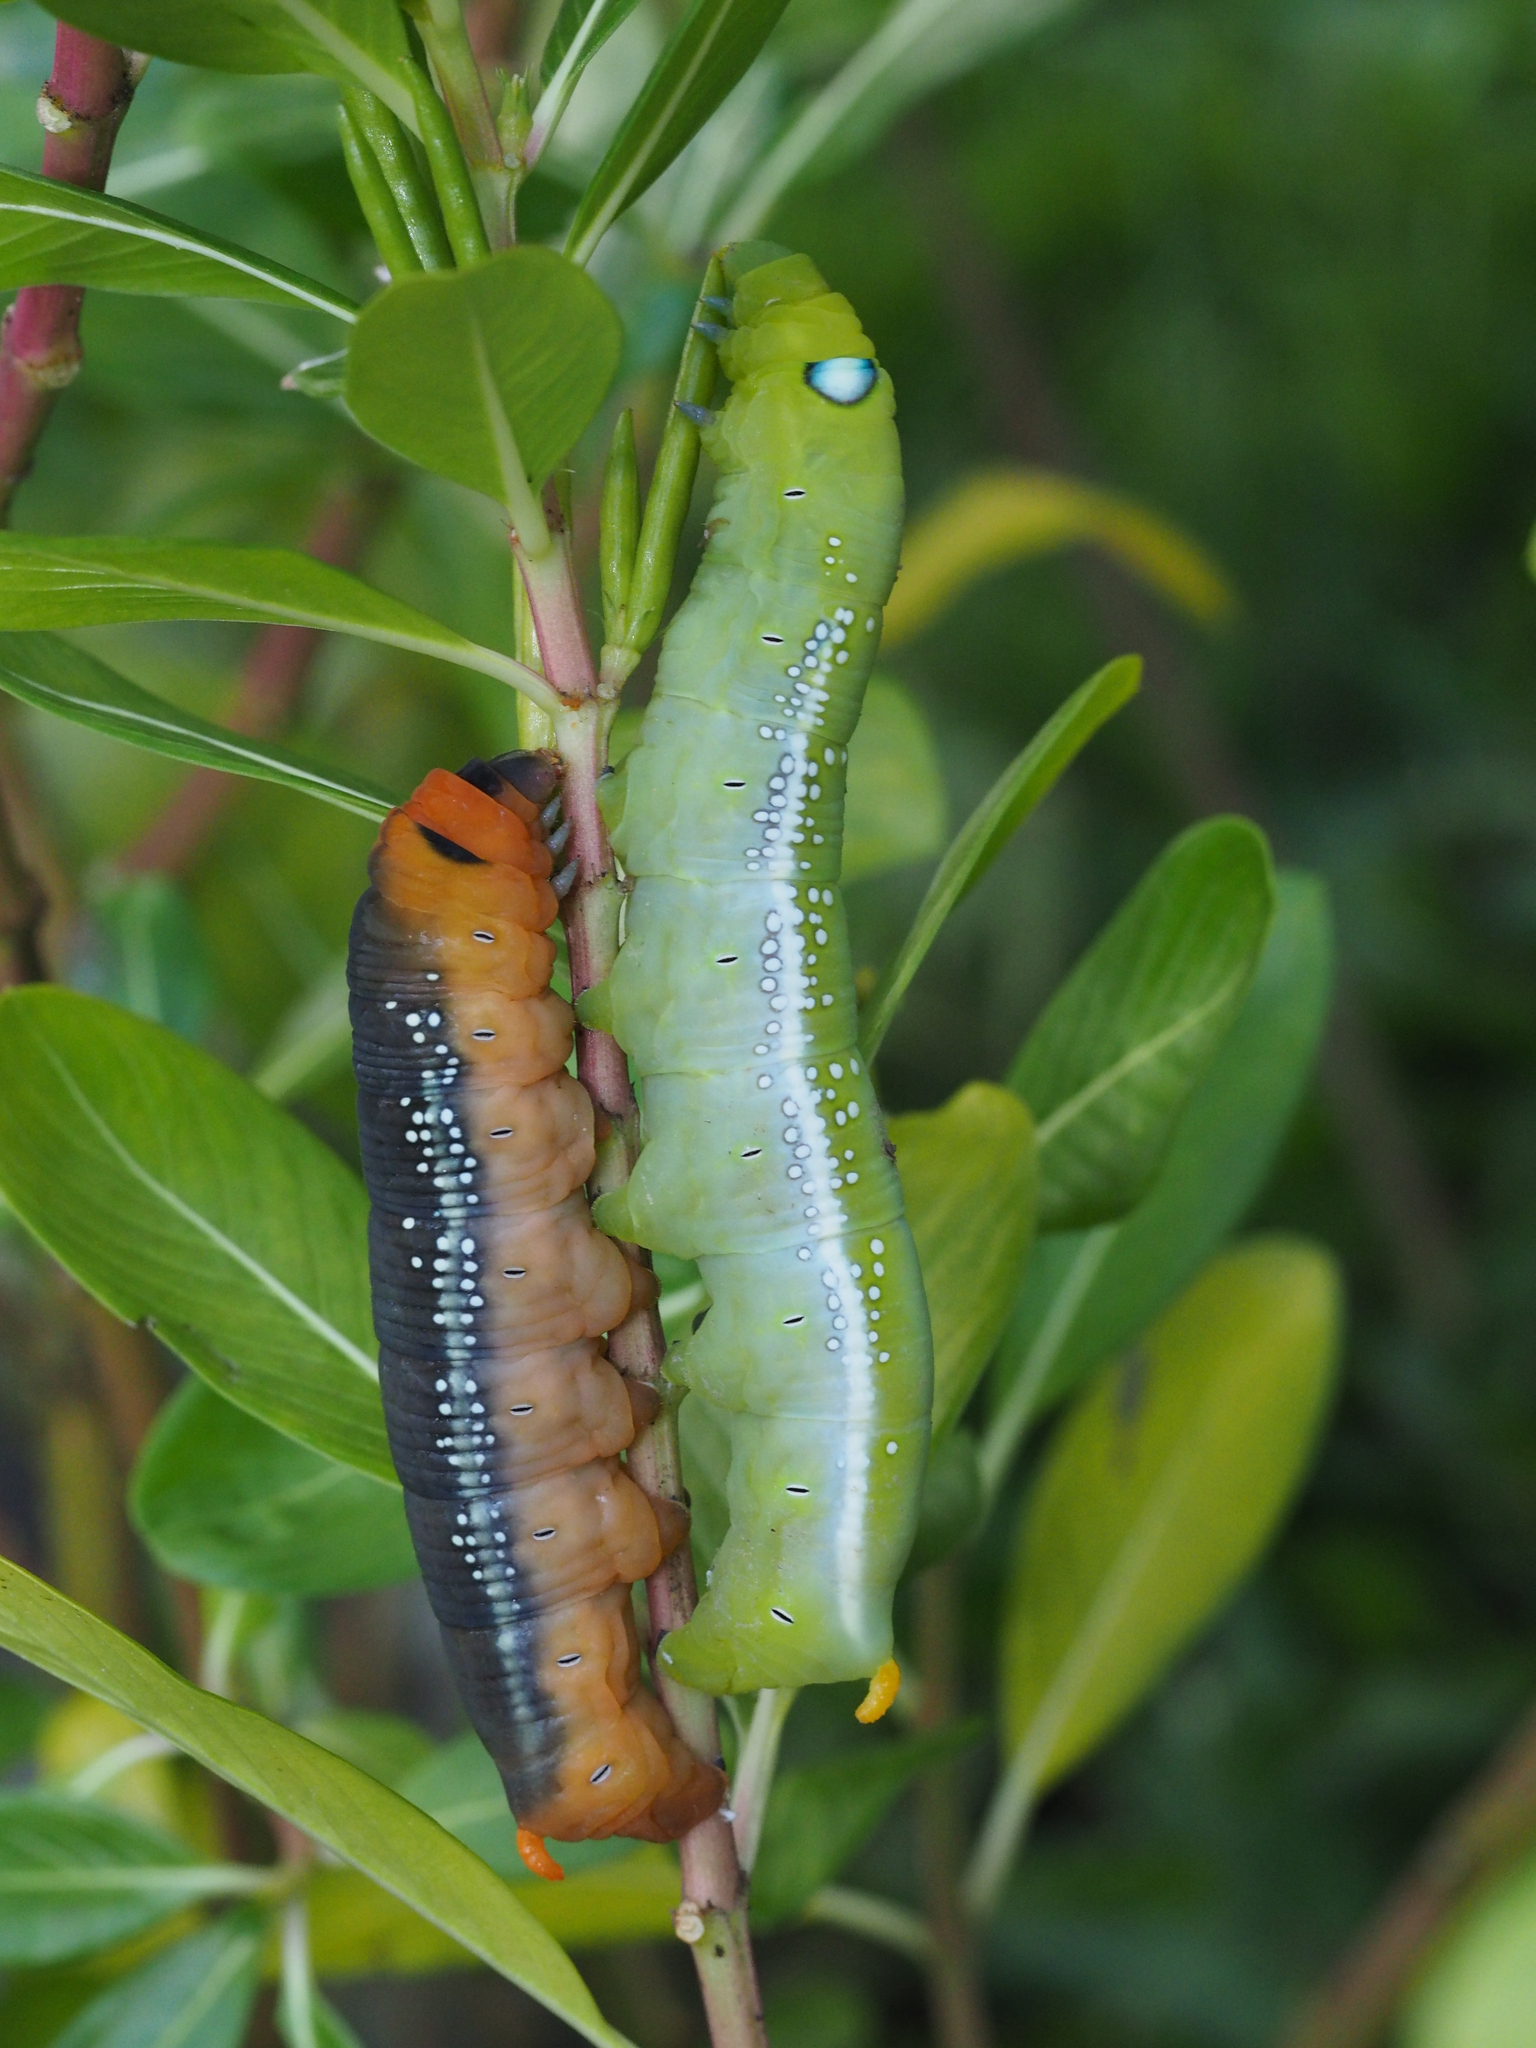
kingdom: Animalia
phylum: Arthropoda
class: Insecta
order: Lepidoptera
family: Sphingidae
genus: Daphnis
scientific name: Daphnis nerii
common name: Oleander hawk-moth
